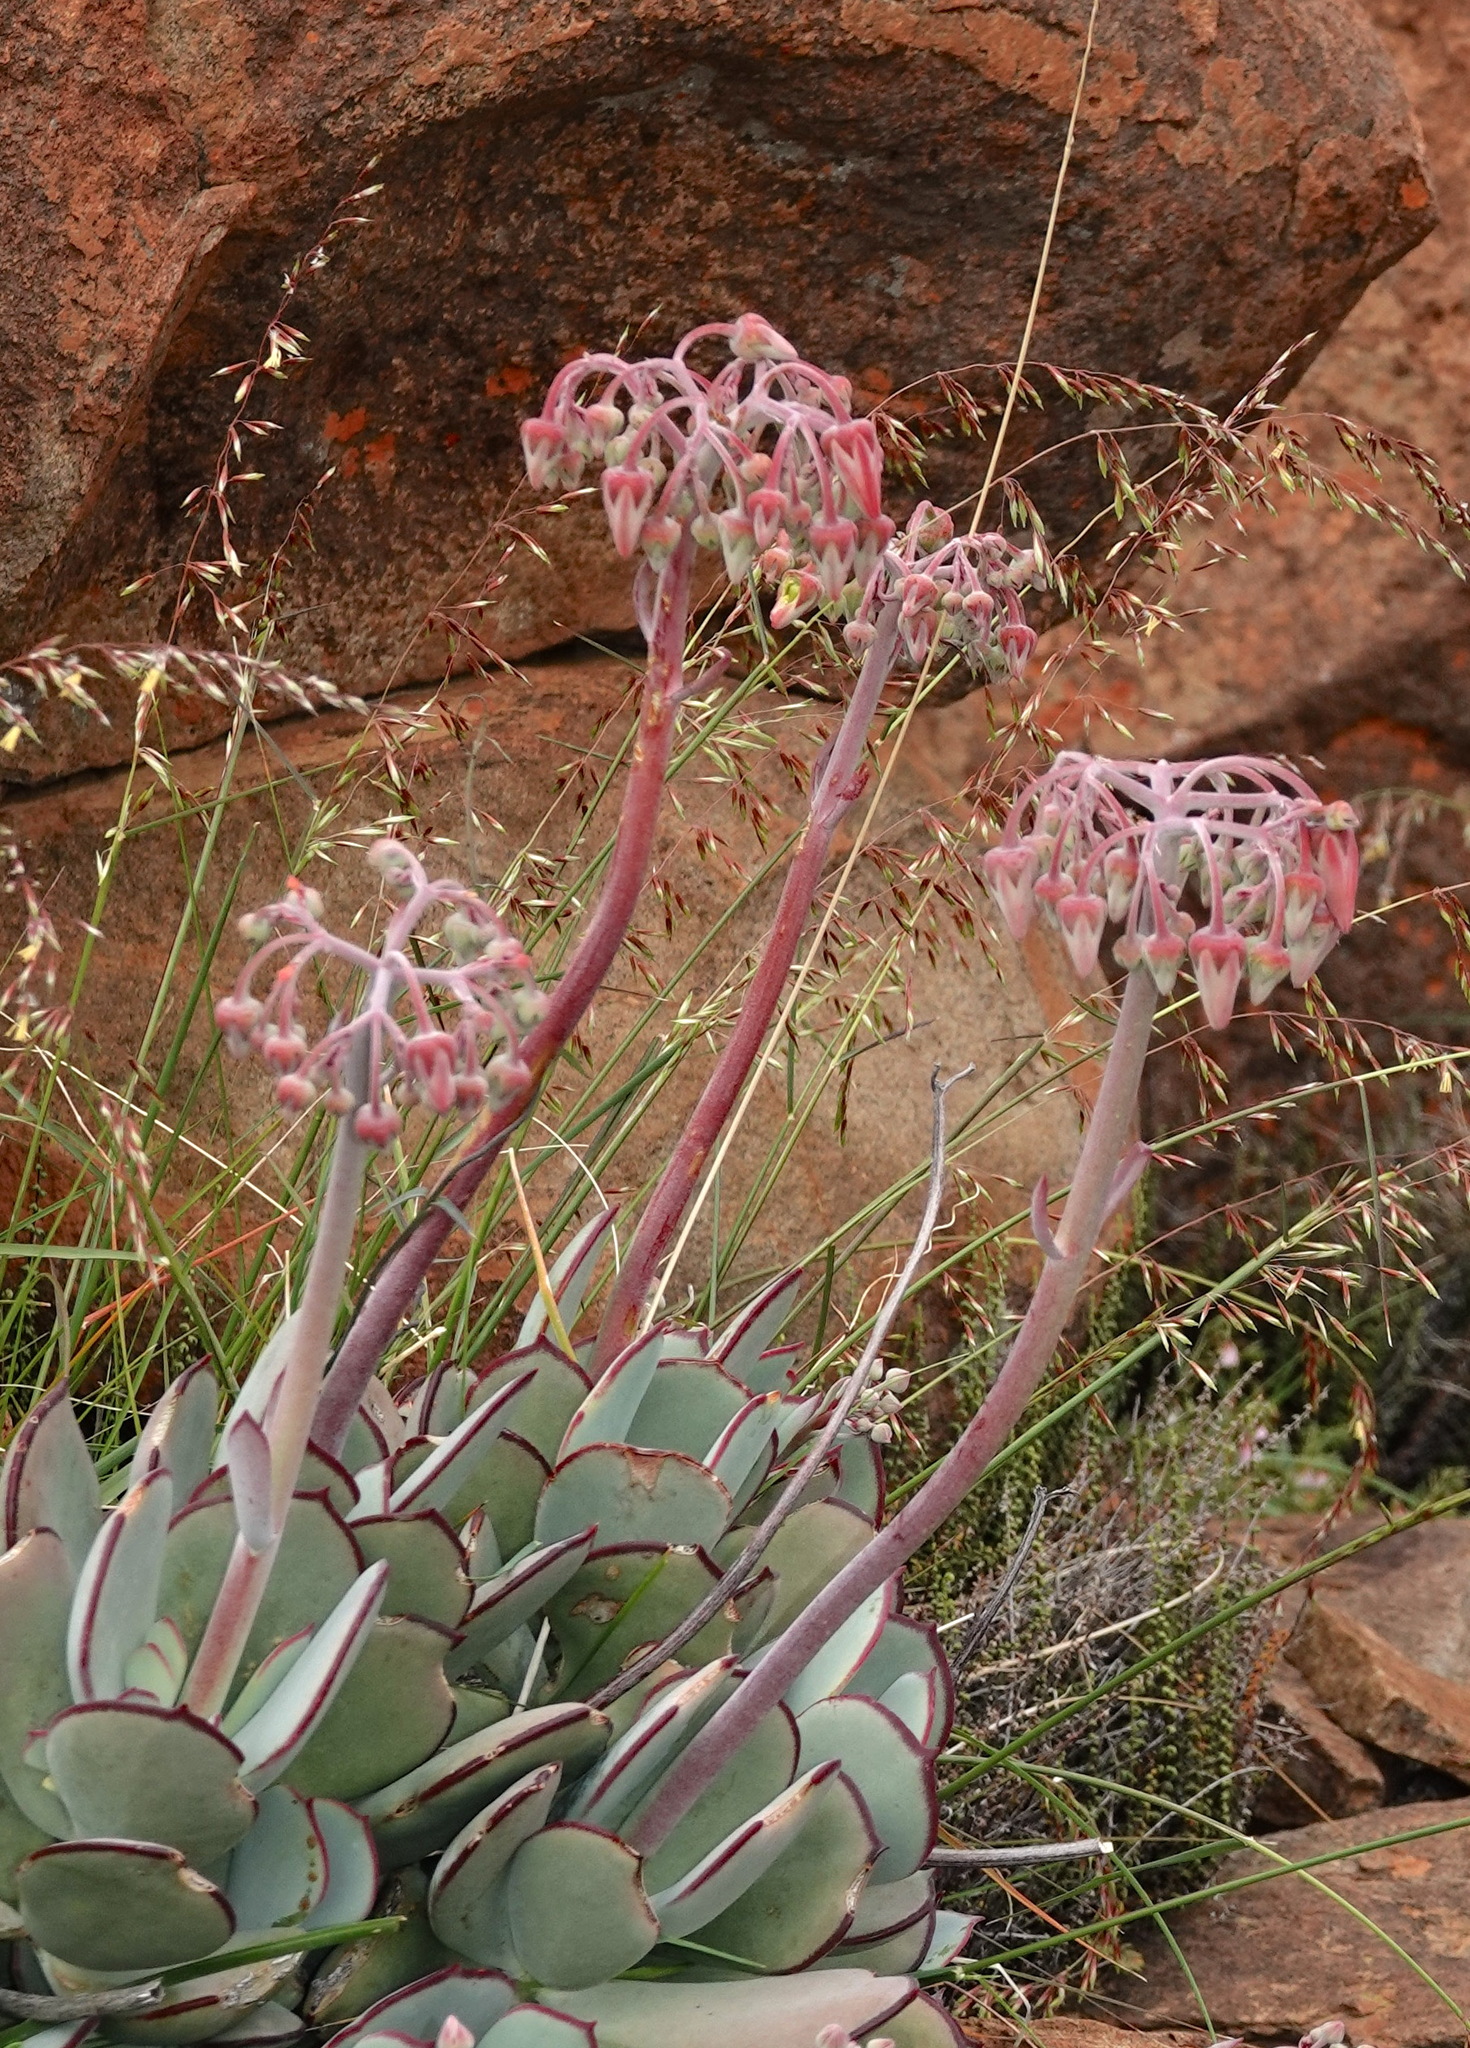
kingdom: Plantae
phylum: Tracheophyta
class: Magnoliopsida
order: Saxifragales
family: Crassulaceae
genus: Cotyledon
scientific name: Cotyledon orbiculata
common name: Pig's ear
